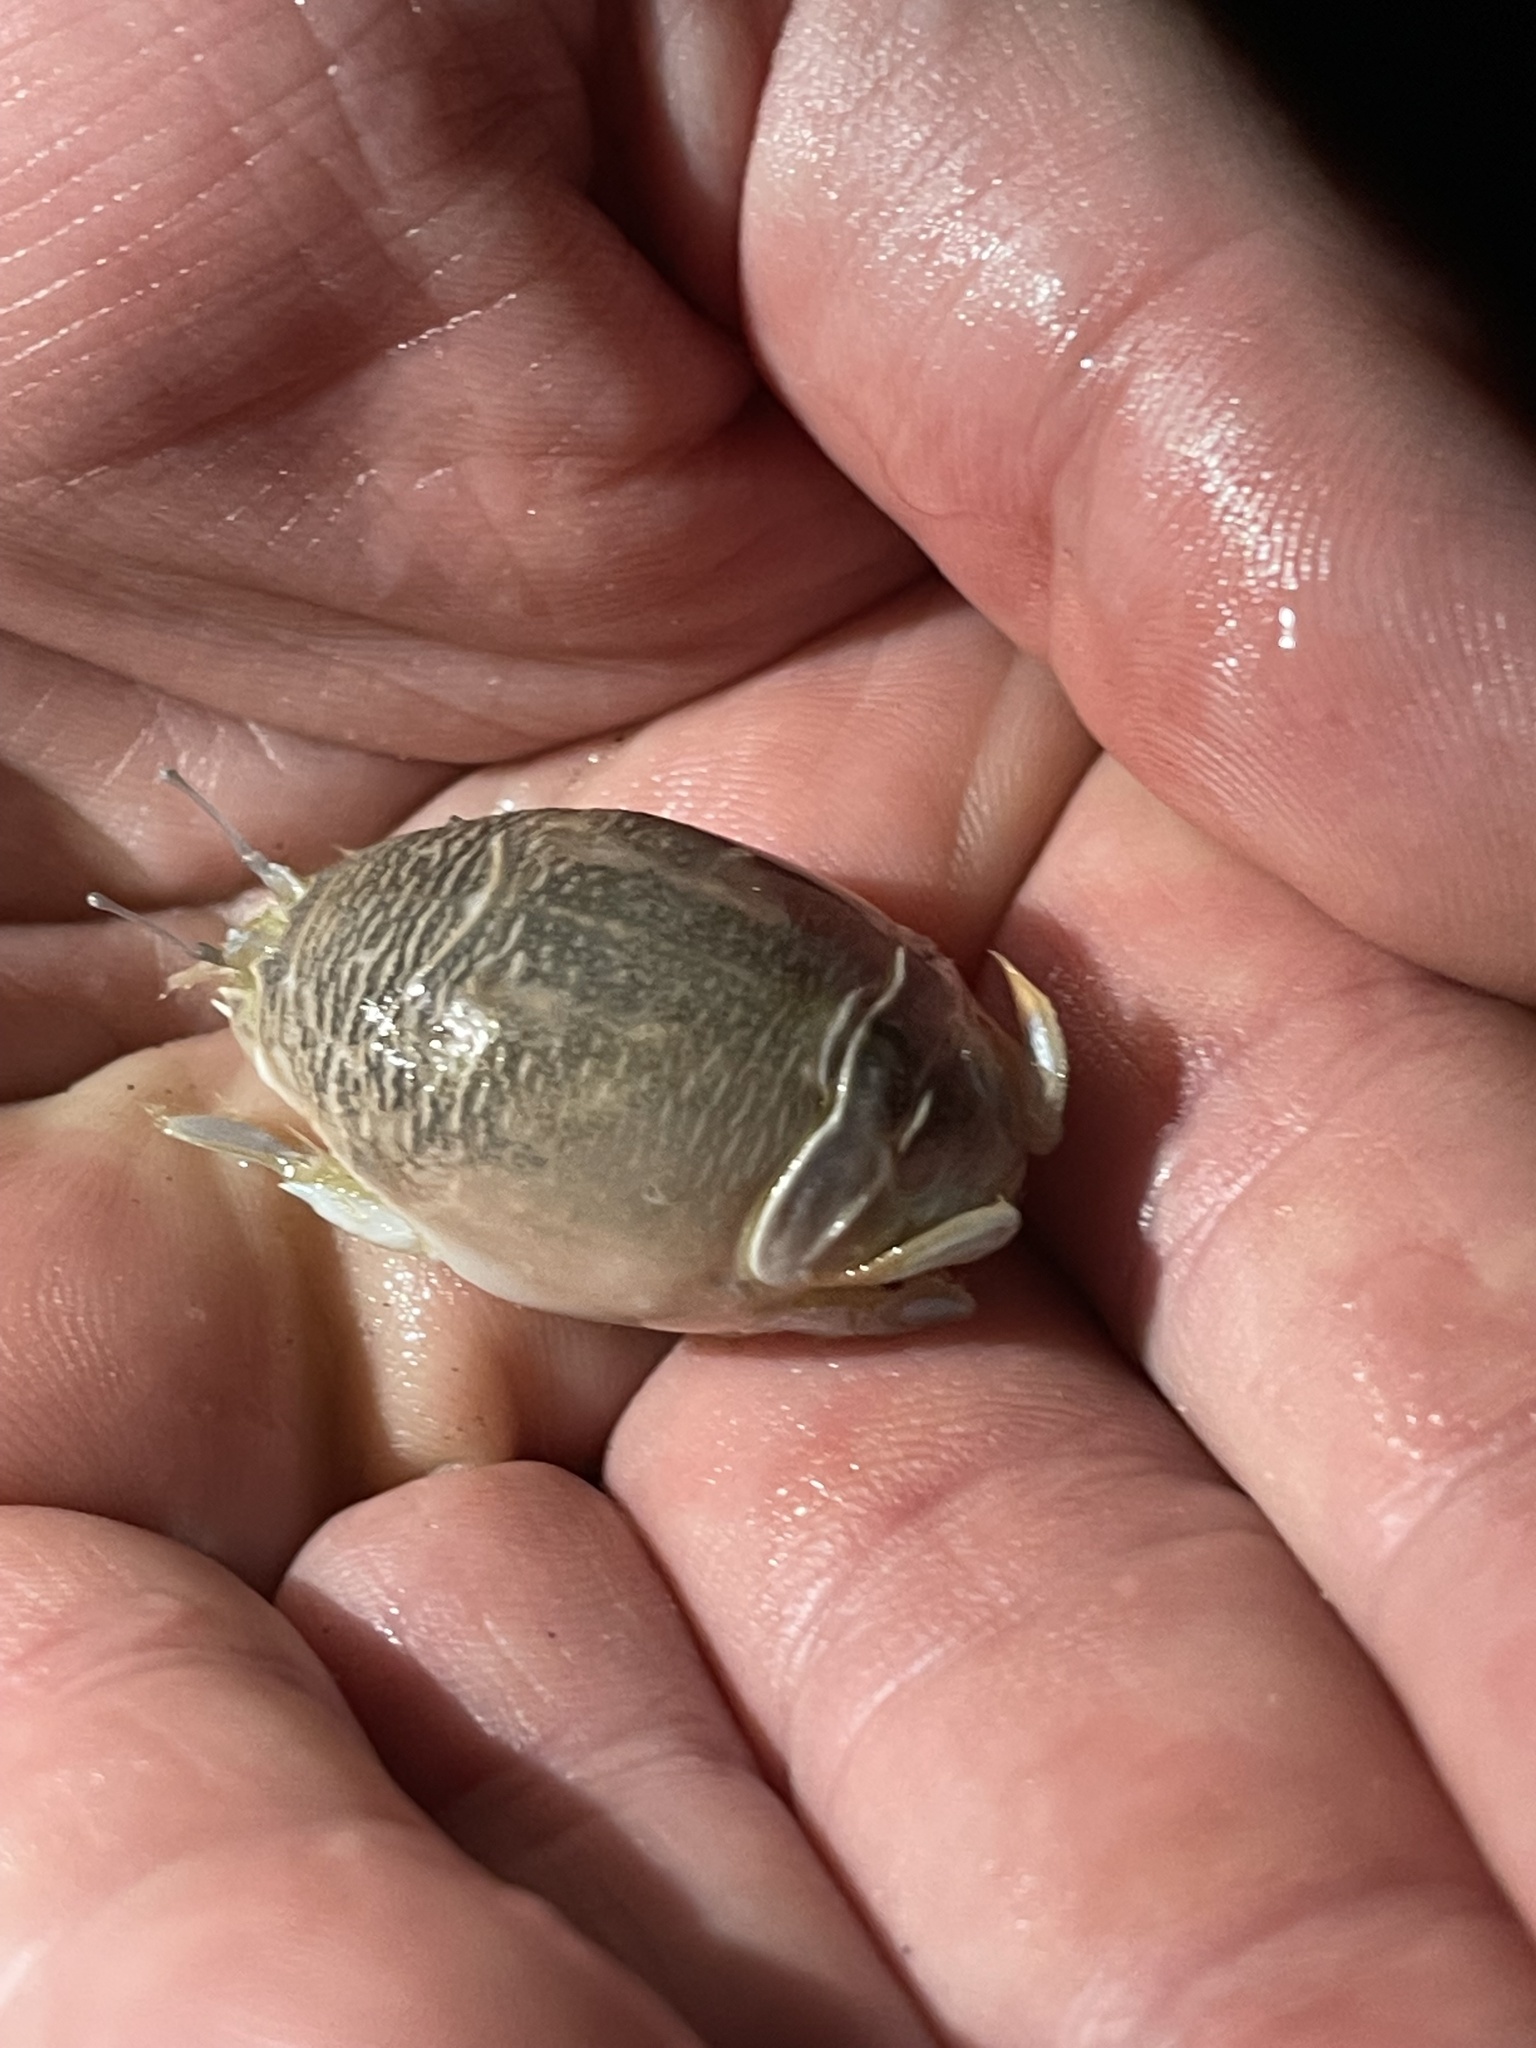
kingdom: Animalia
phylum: Arthropoda
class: Malacostraca
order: Decapoda
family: Hippidae
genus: Emerita
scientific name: Emerita talpoida
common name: Atlantic sand crab
